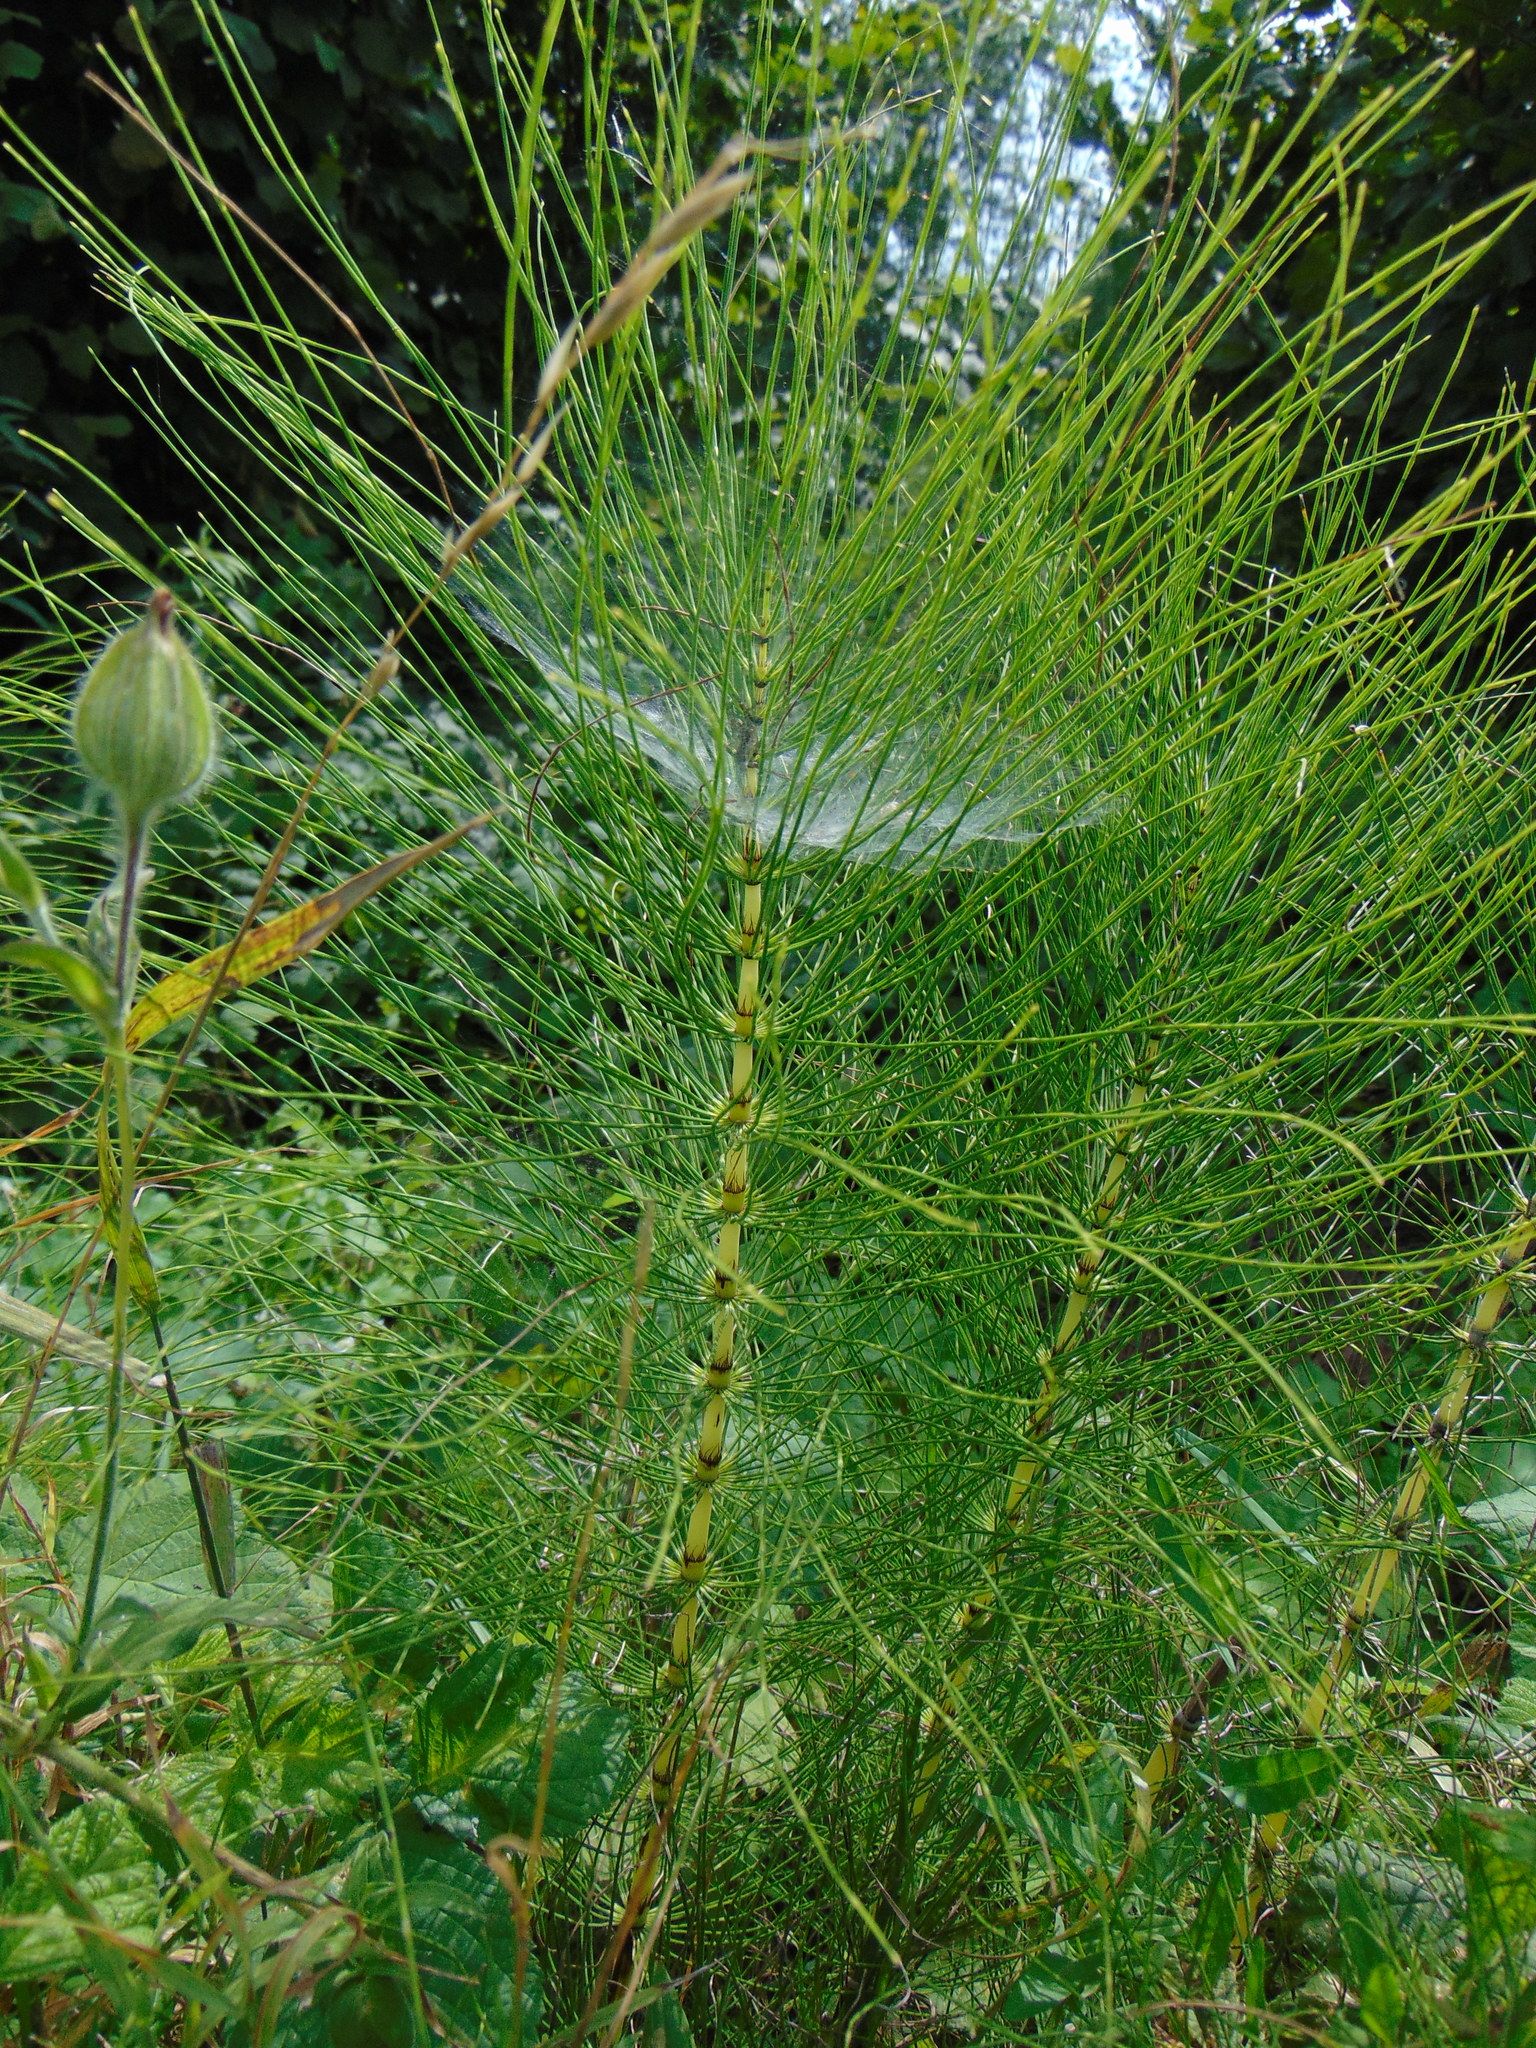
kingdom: Plantae
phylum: Tracheophyta
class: Polypodiopsida
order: Equisetales
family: Equisetaceae
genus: Equisetum
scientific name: Equisetum telmateia
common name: Great horsetail
